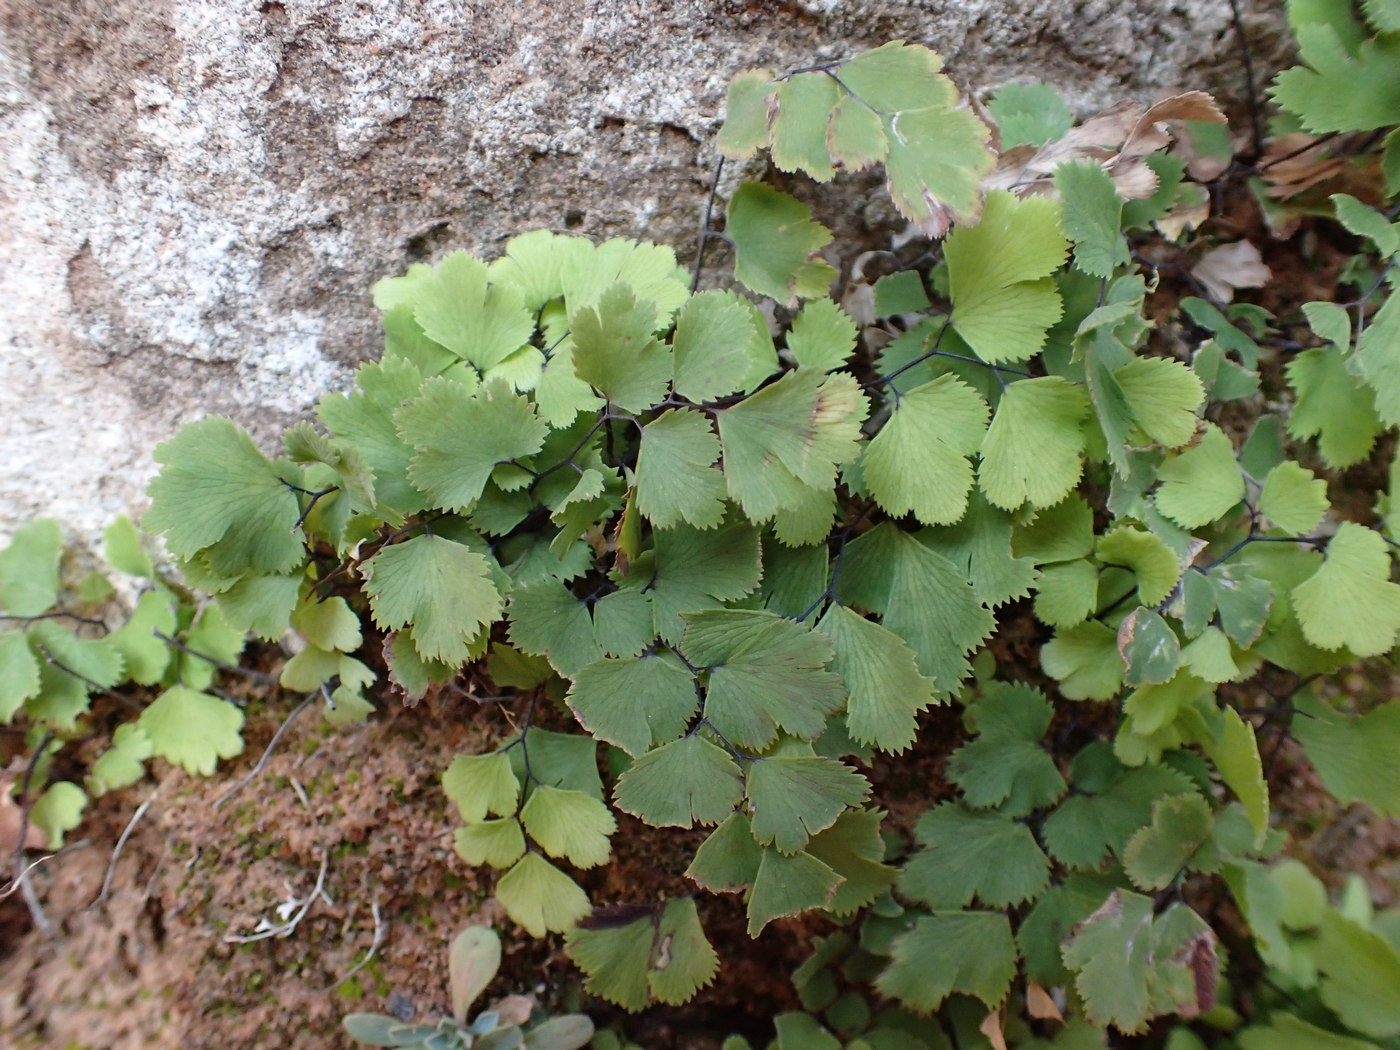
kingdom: Plantae
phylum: Tracheophyta
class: Polypodiopsida
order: Polypodiales
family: Pteridaceae
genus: Adiantum
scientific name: Adiantum capillus-veneris
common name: Maidenhair fern
